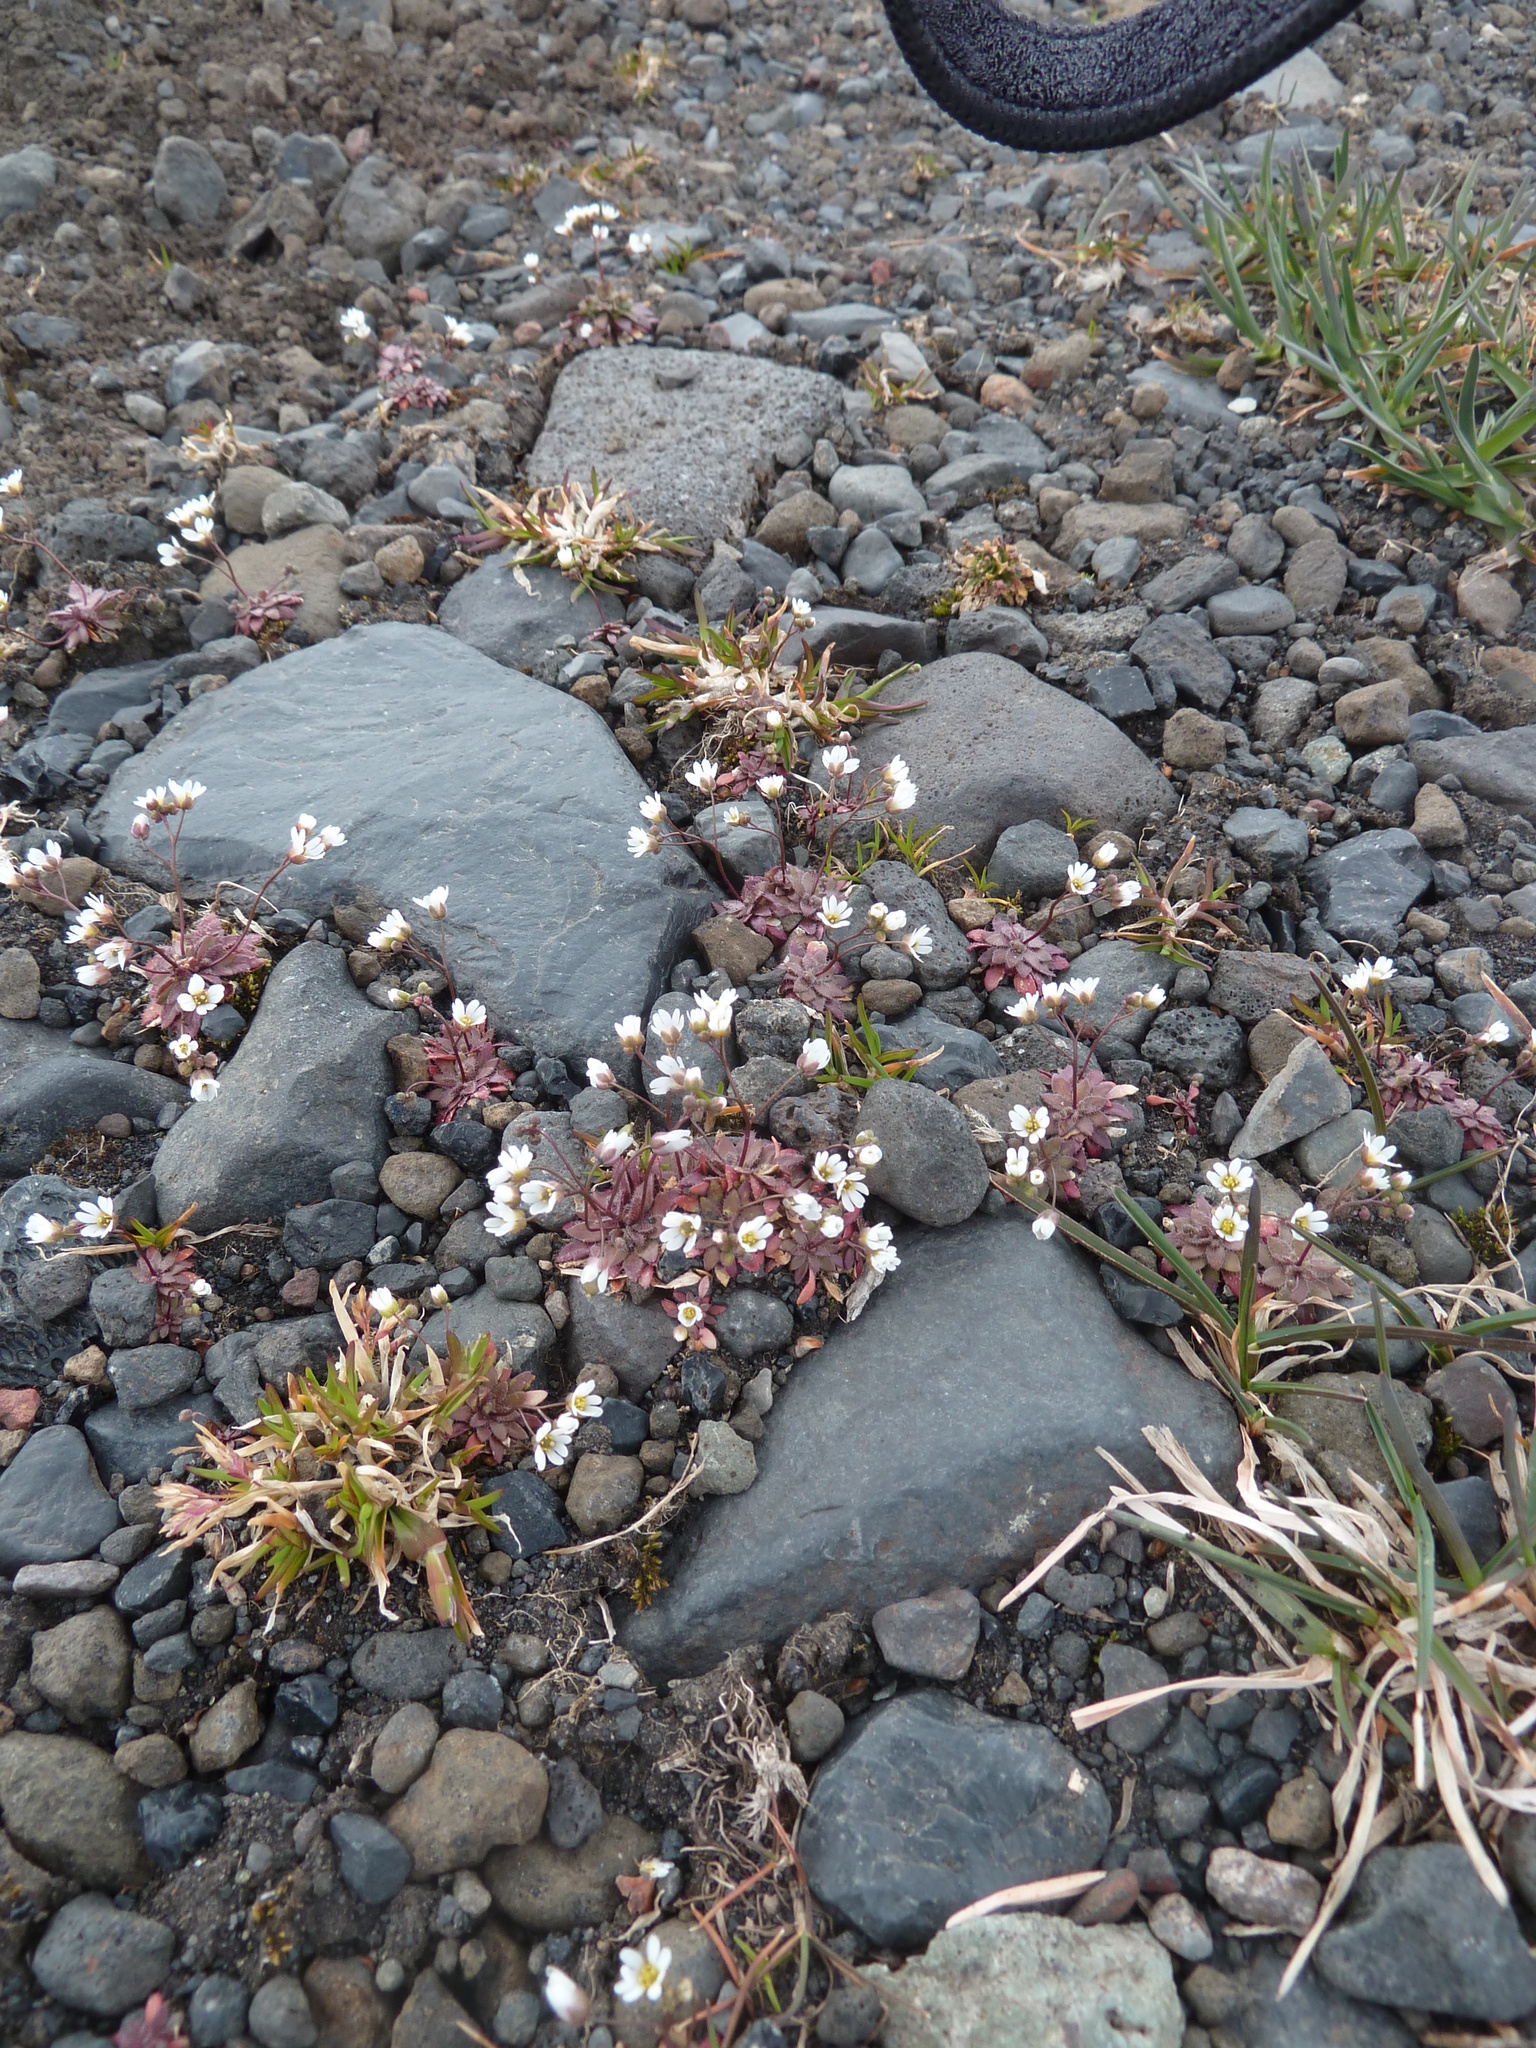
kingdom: Plantae
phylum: Tracheophyta
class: Magnoliopsida
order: Brassicales
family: Brassicaceae
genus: Draba
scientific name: Draba verna
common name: Spring draba
